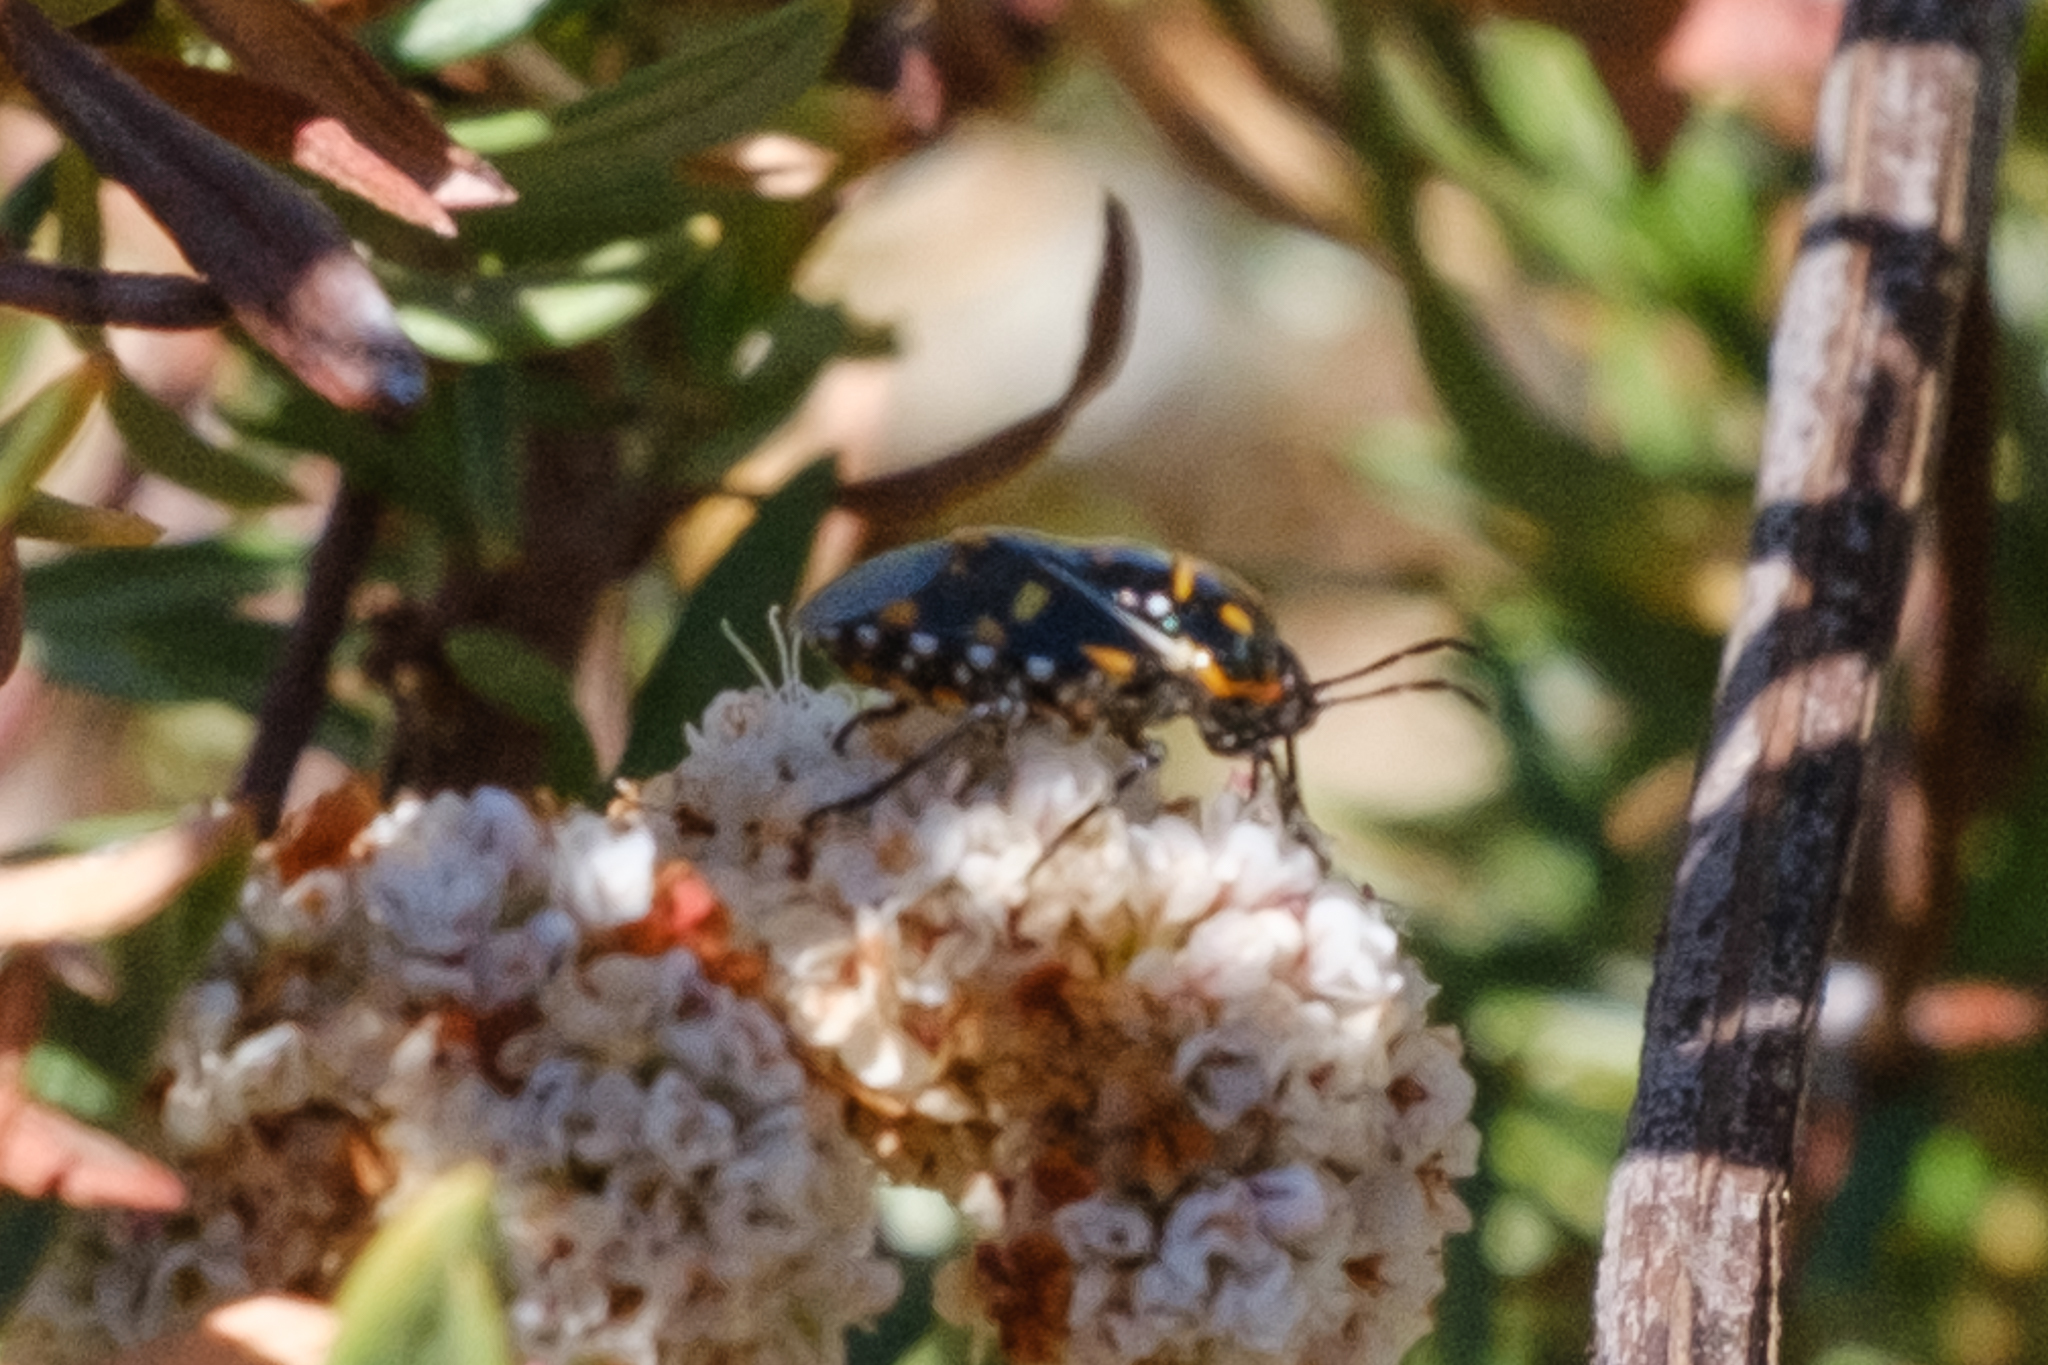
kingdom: Animalia
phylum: Arthropoda
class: Insecta
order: Hemiptera
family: Pentatomidae
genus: Murgantia
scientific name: Murgantia histrionica
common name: Harlequin bug
